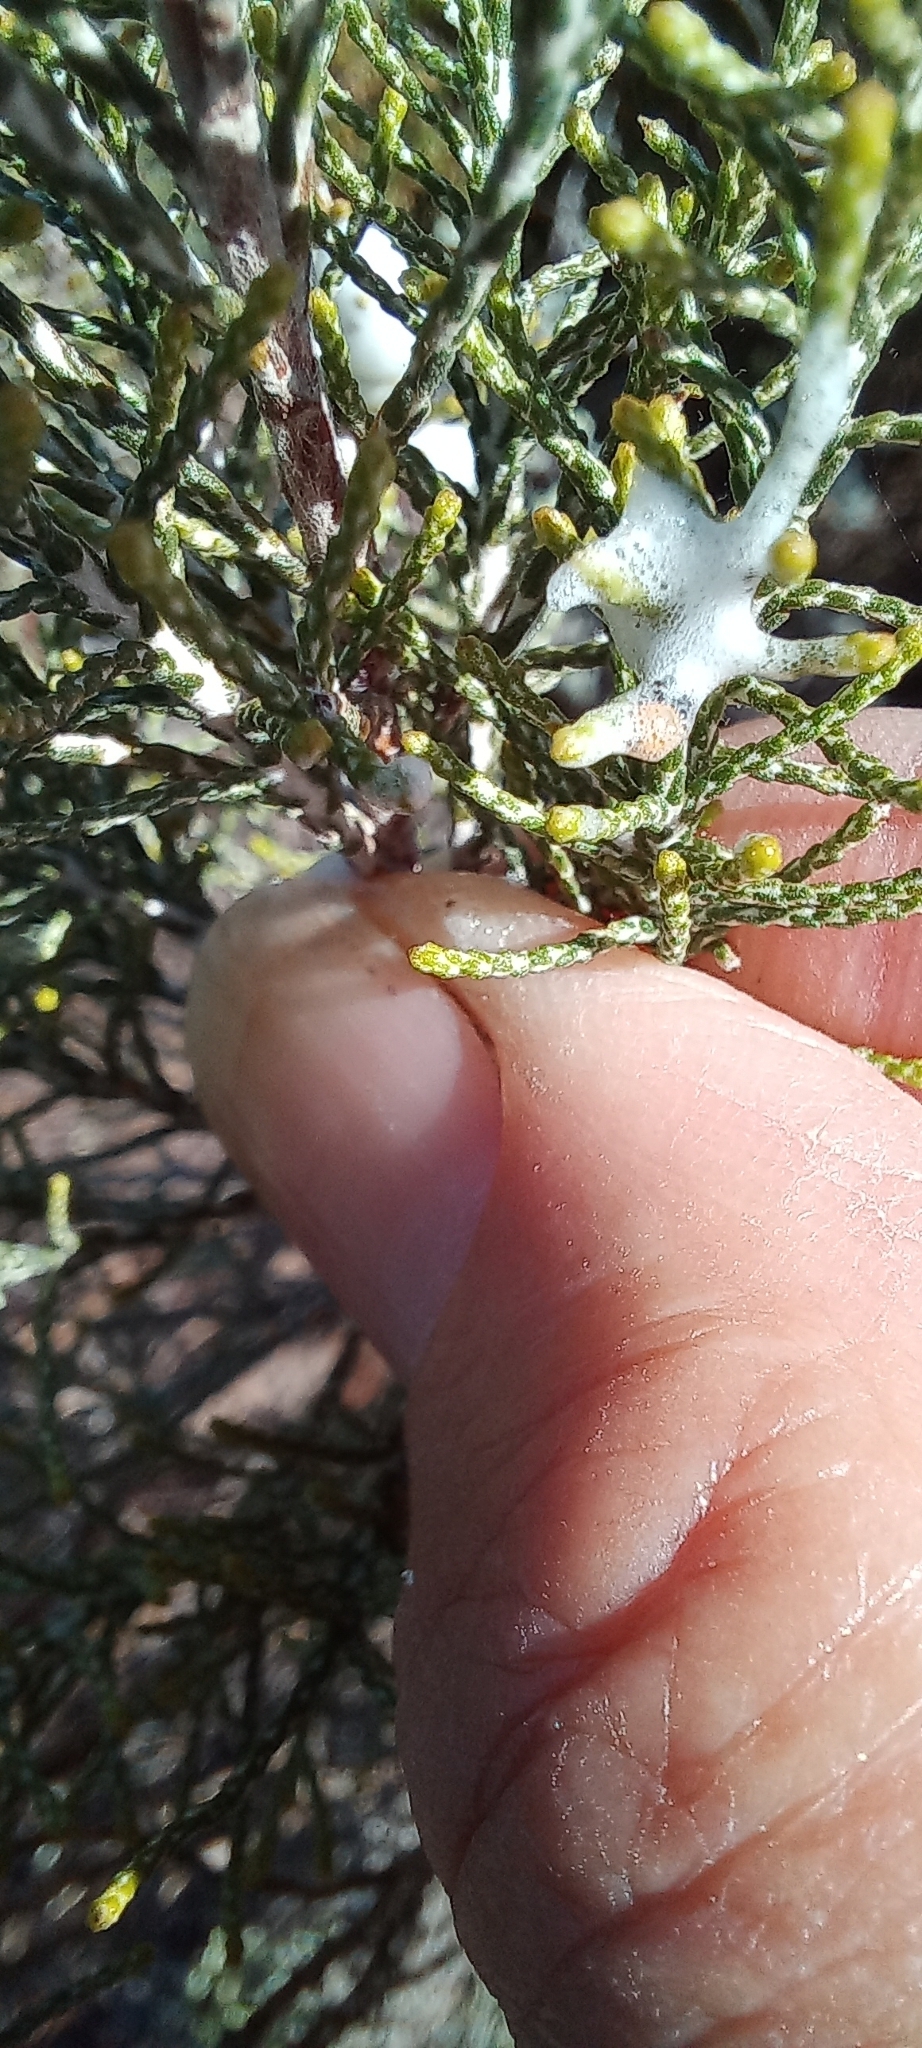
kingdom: Animalia
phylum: Arthropoda
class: Insecta
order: Hemiptera
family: Aphrophoridae
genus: Tremapterus
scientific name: Tremapterus
